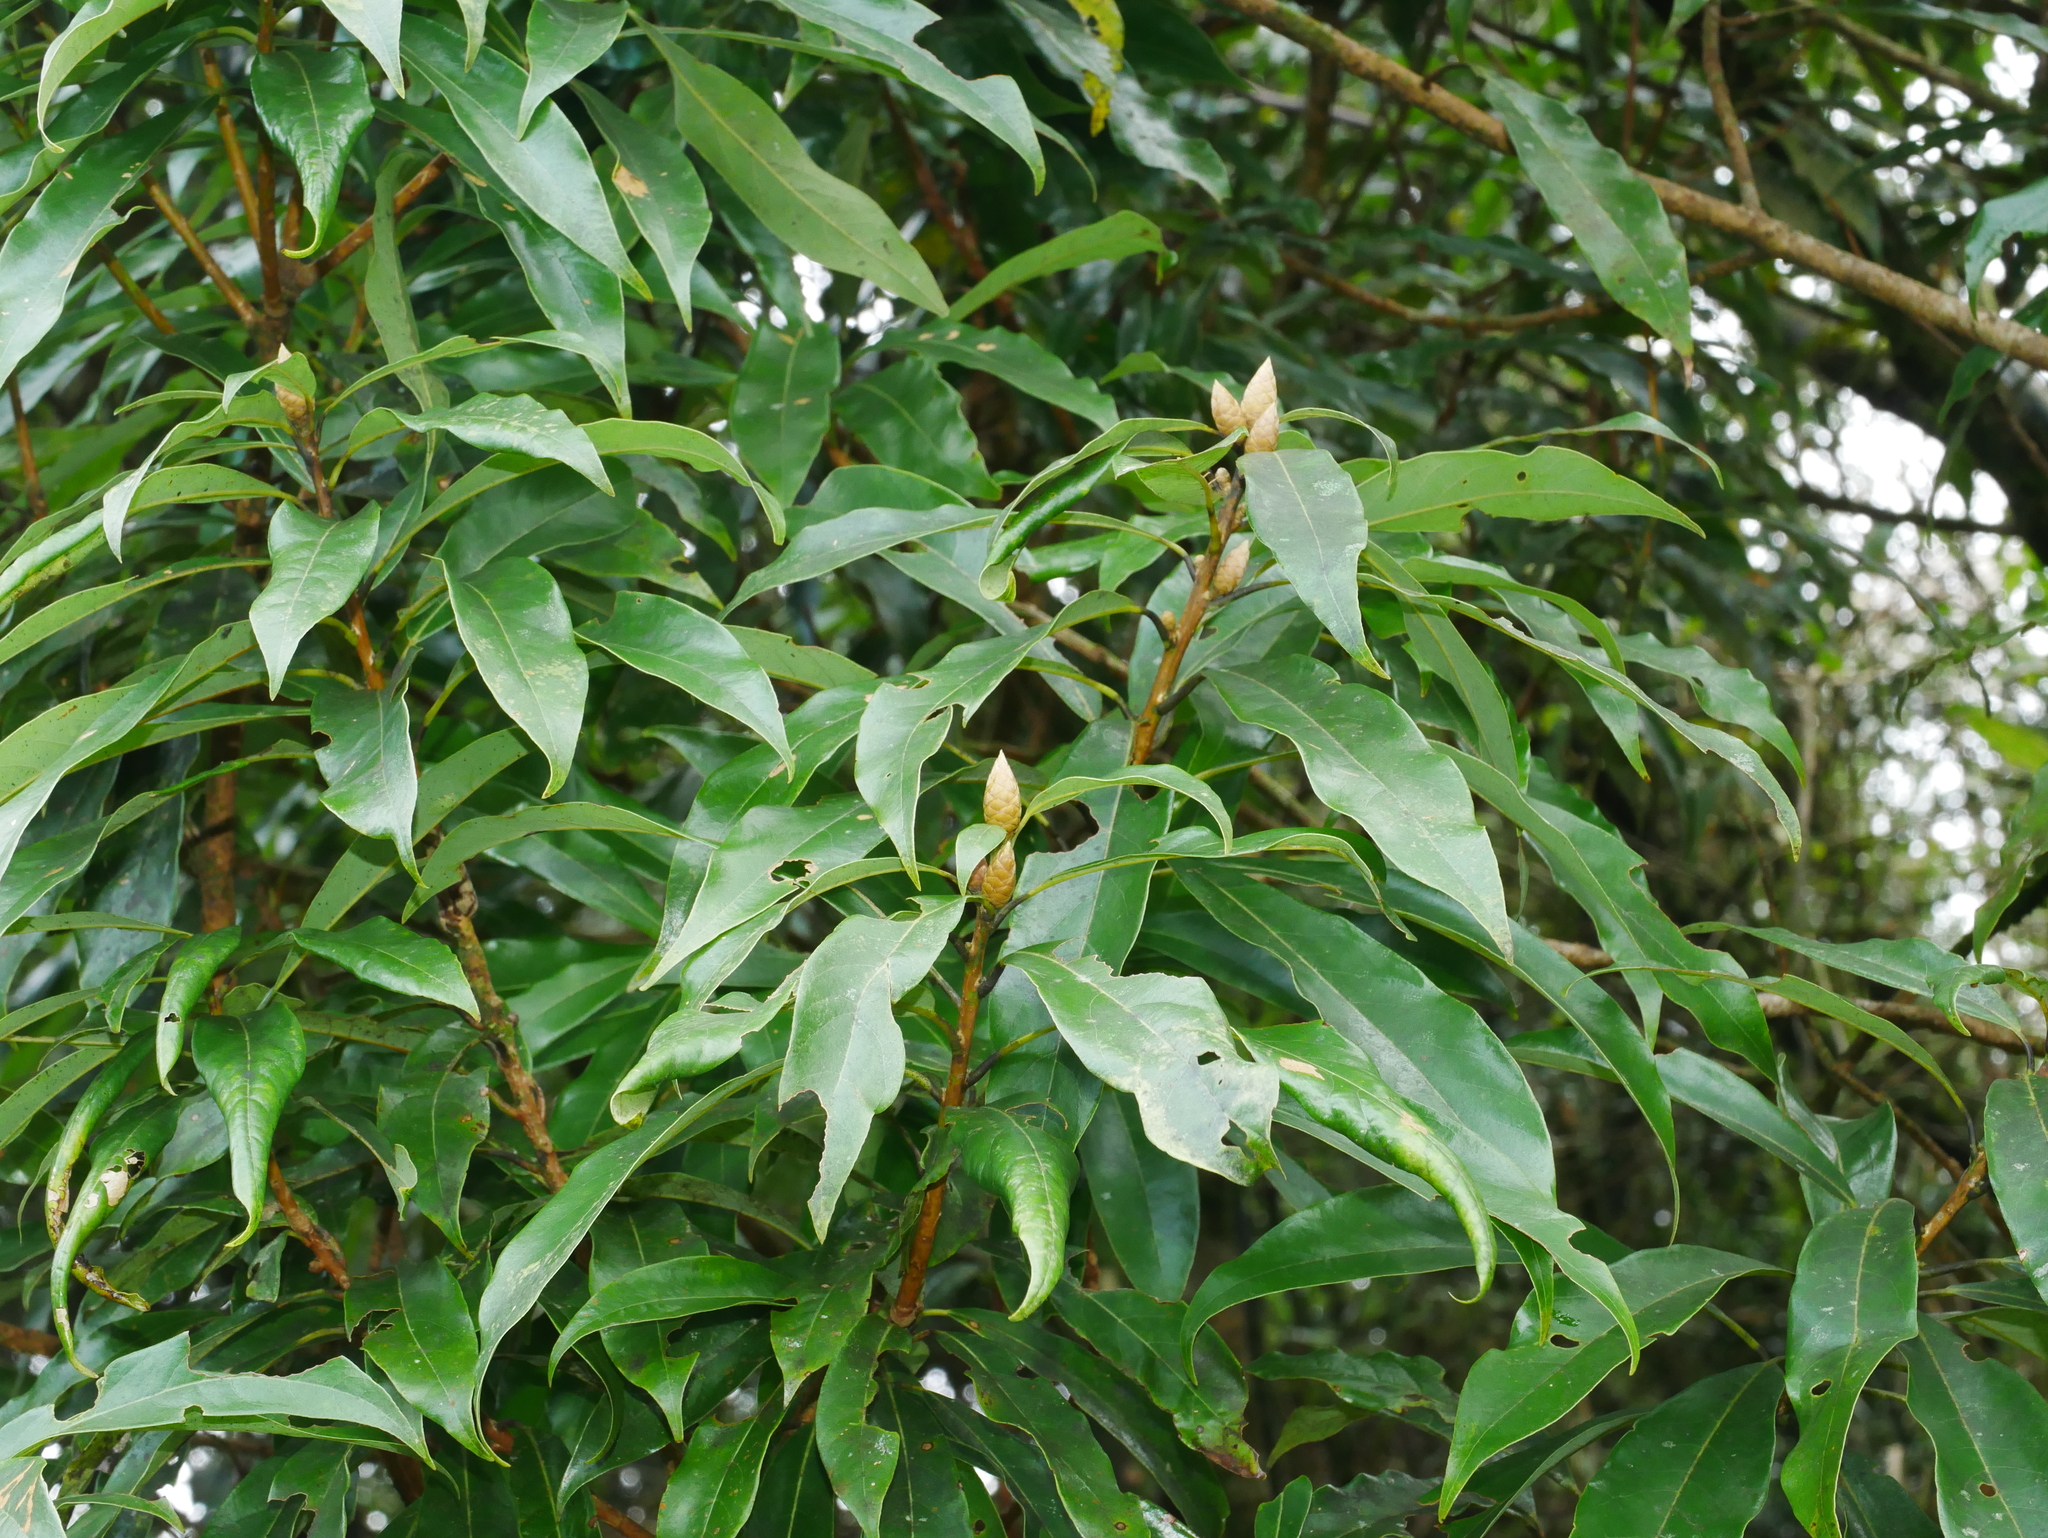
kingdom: Plantae
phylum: Tracheophyta
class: Magnoliopsida
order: Laurales
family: Lauraceae
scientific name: Lauraceae
